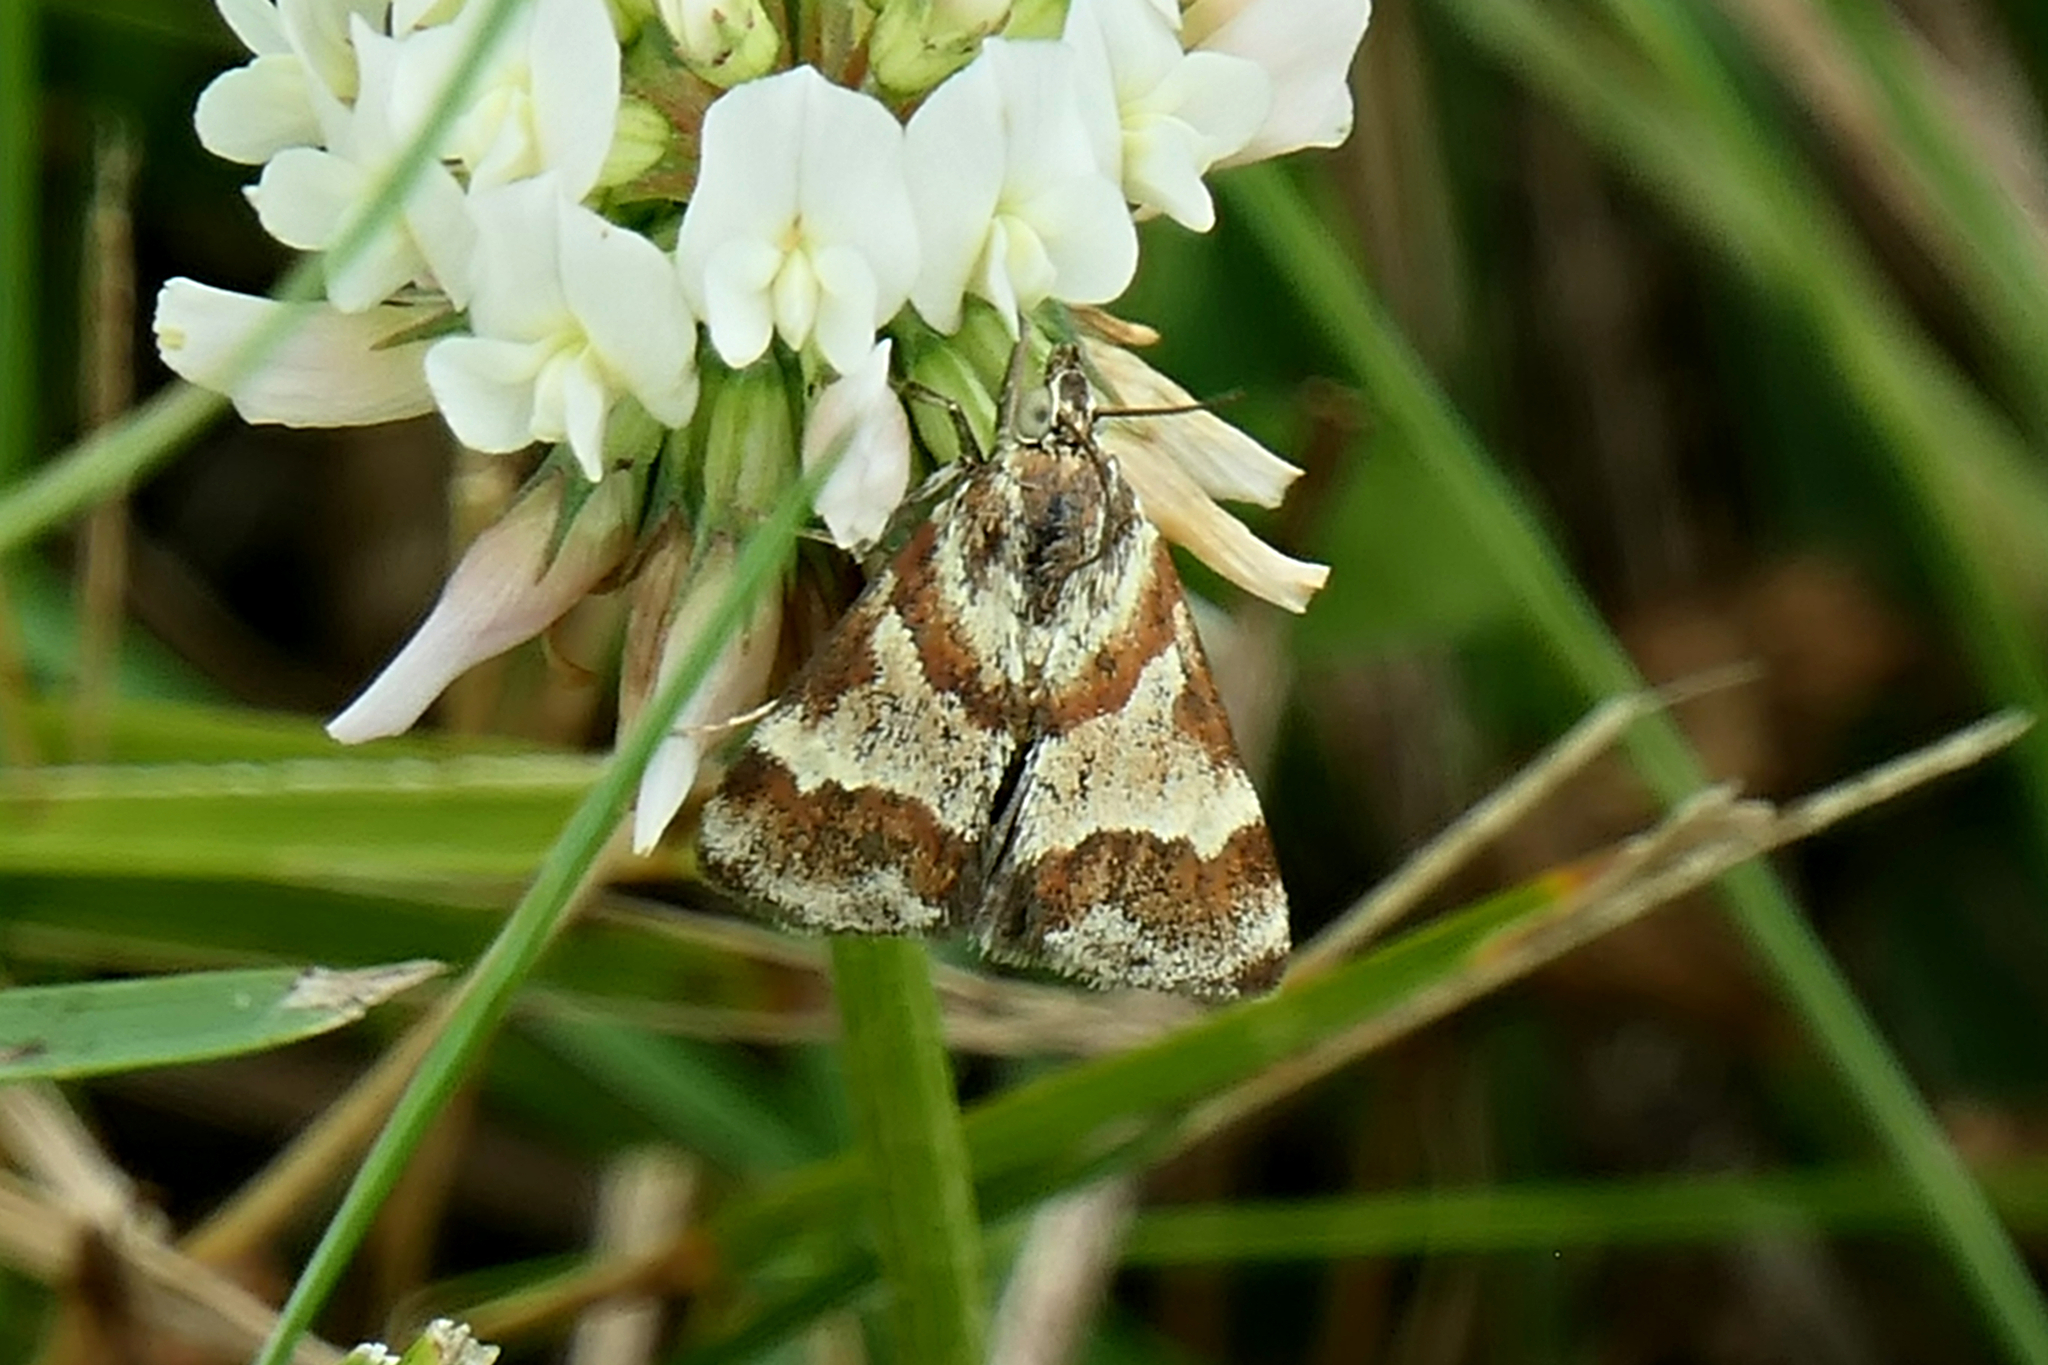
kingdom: Animalia
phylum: Arthropoda
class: Insecta
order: Lepidoptera
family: Crambidae
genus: Noctuelia
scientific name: Noctuelia Mimoschinia rufofascialis
